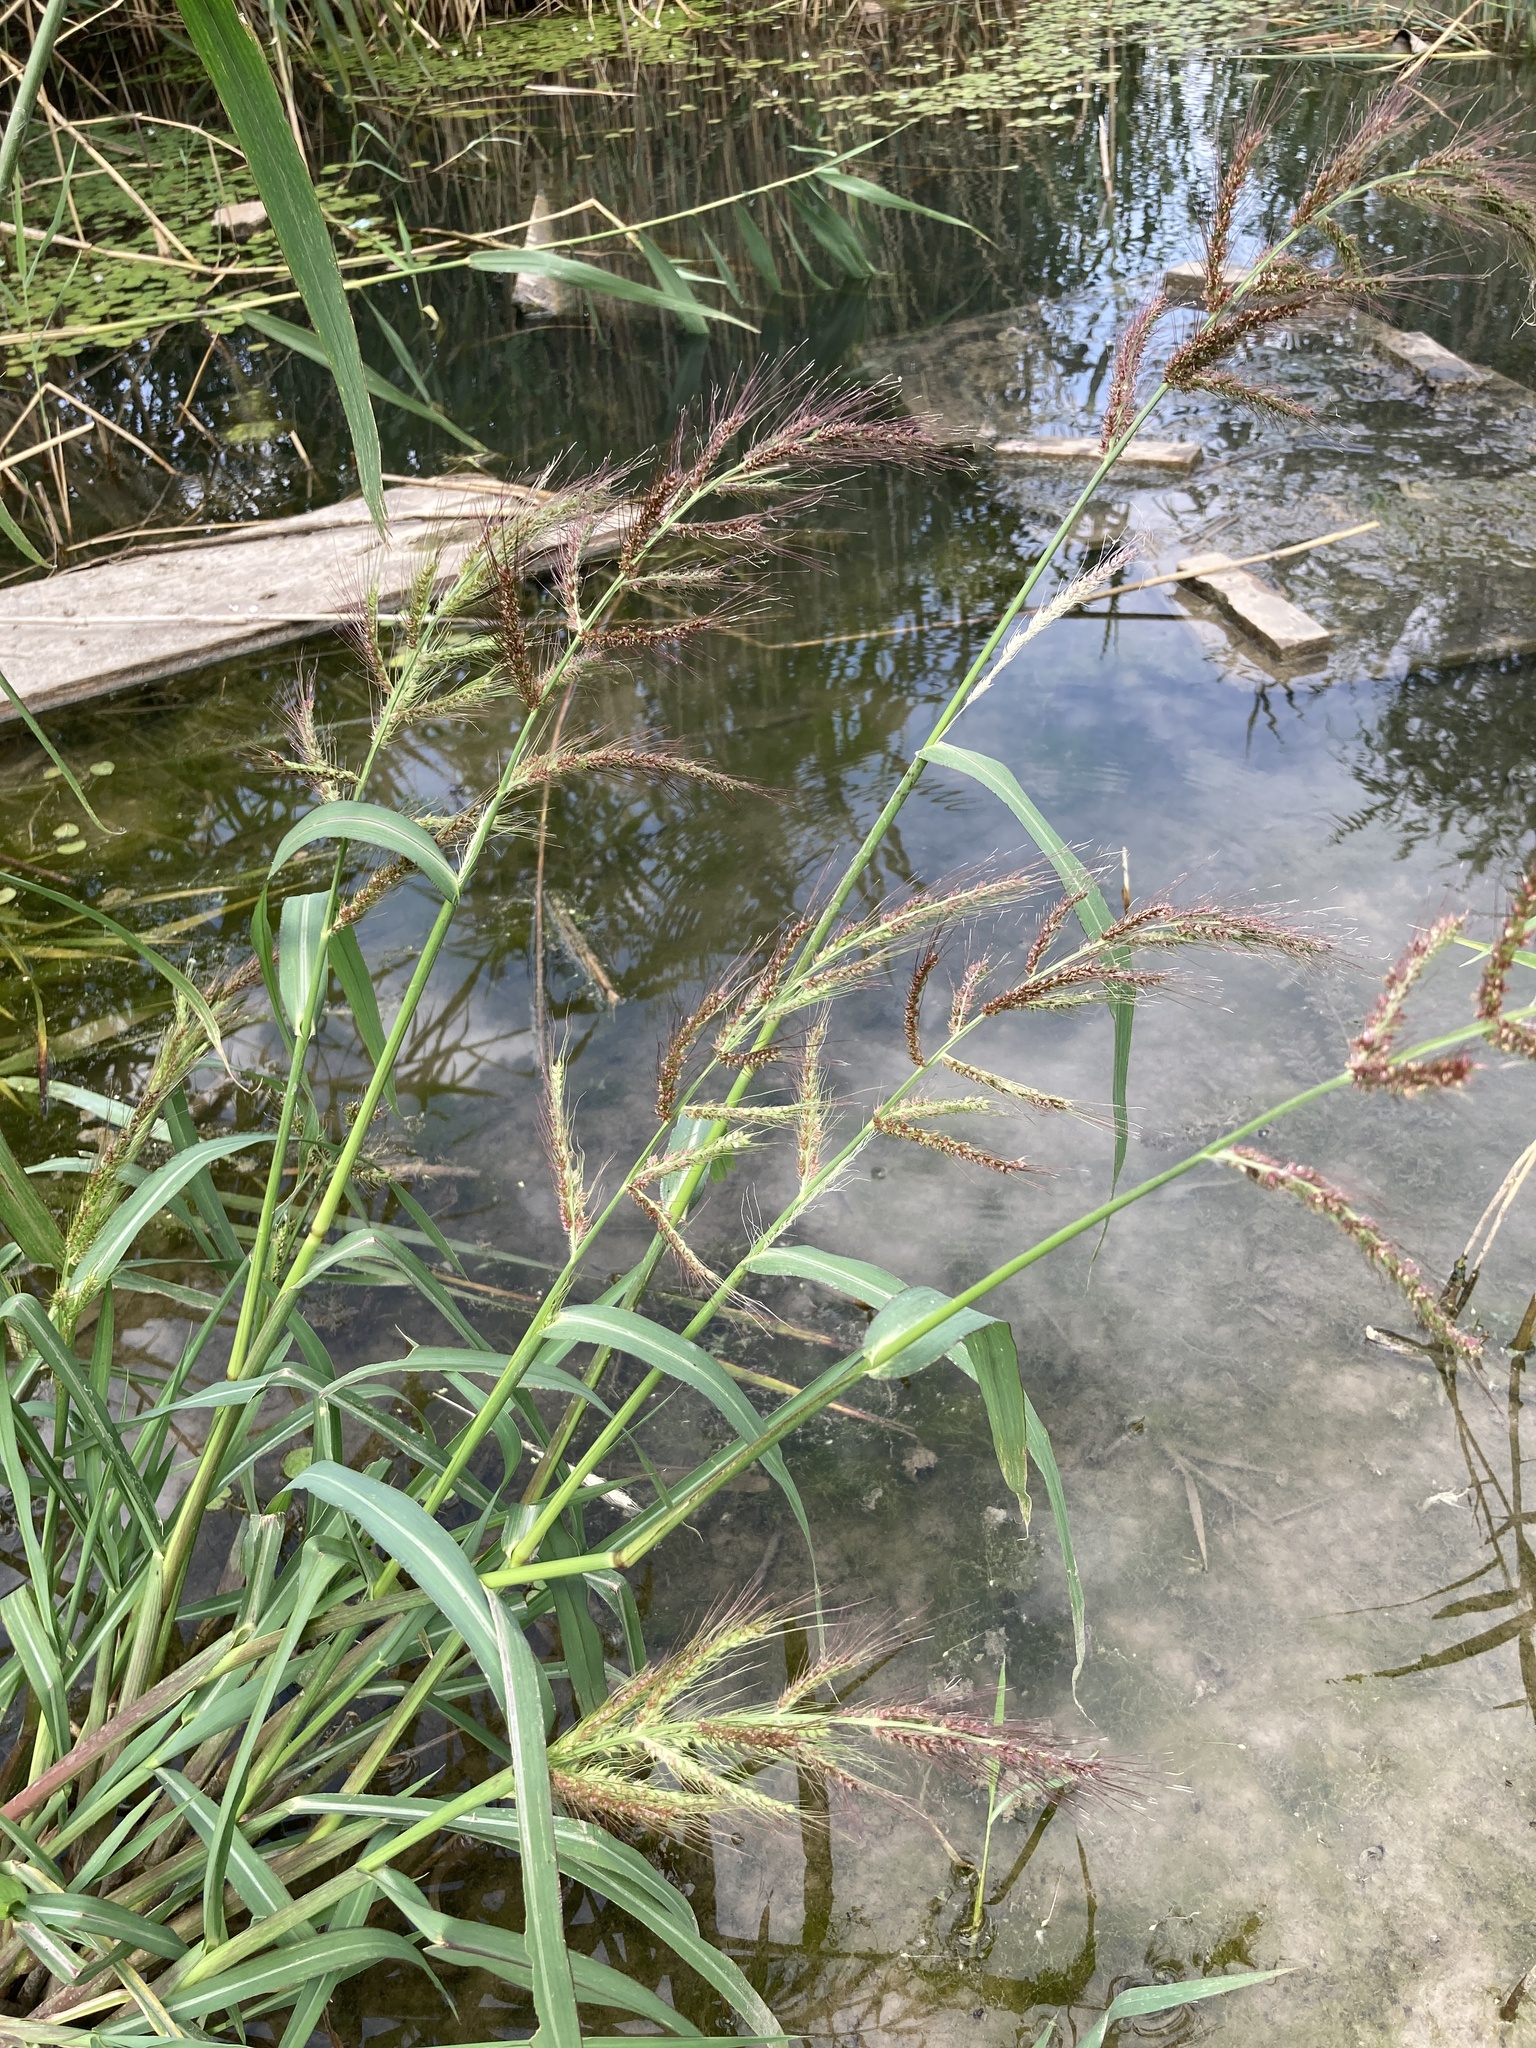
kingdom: Plantae
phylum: Tracheophyta
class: Liliopsida
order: Poales
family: Poaceae
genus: Echinochloa
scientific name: Echinochloa crus-galli
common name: Cockspur
